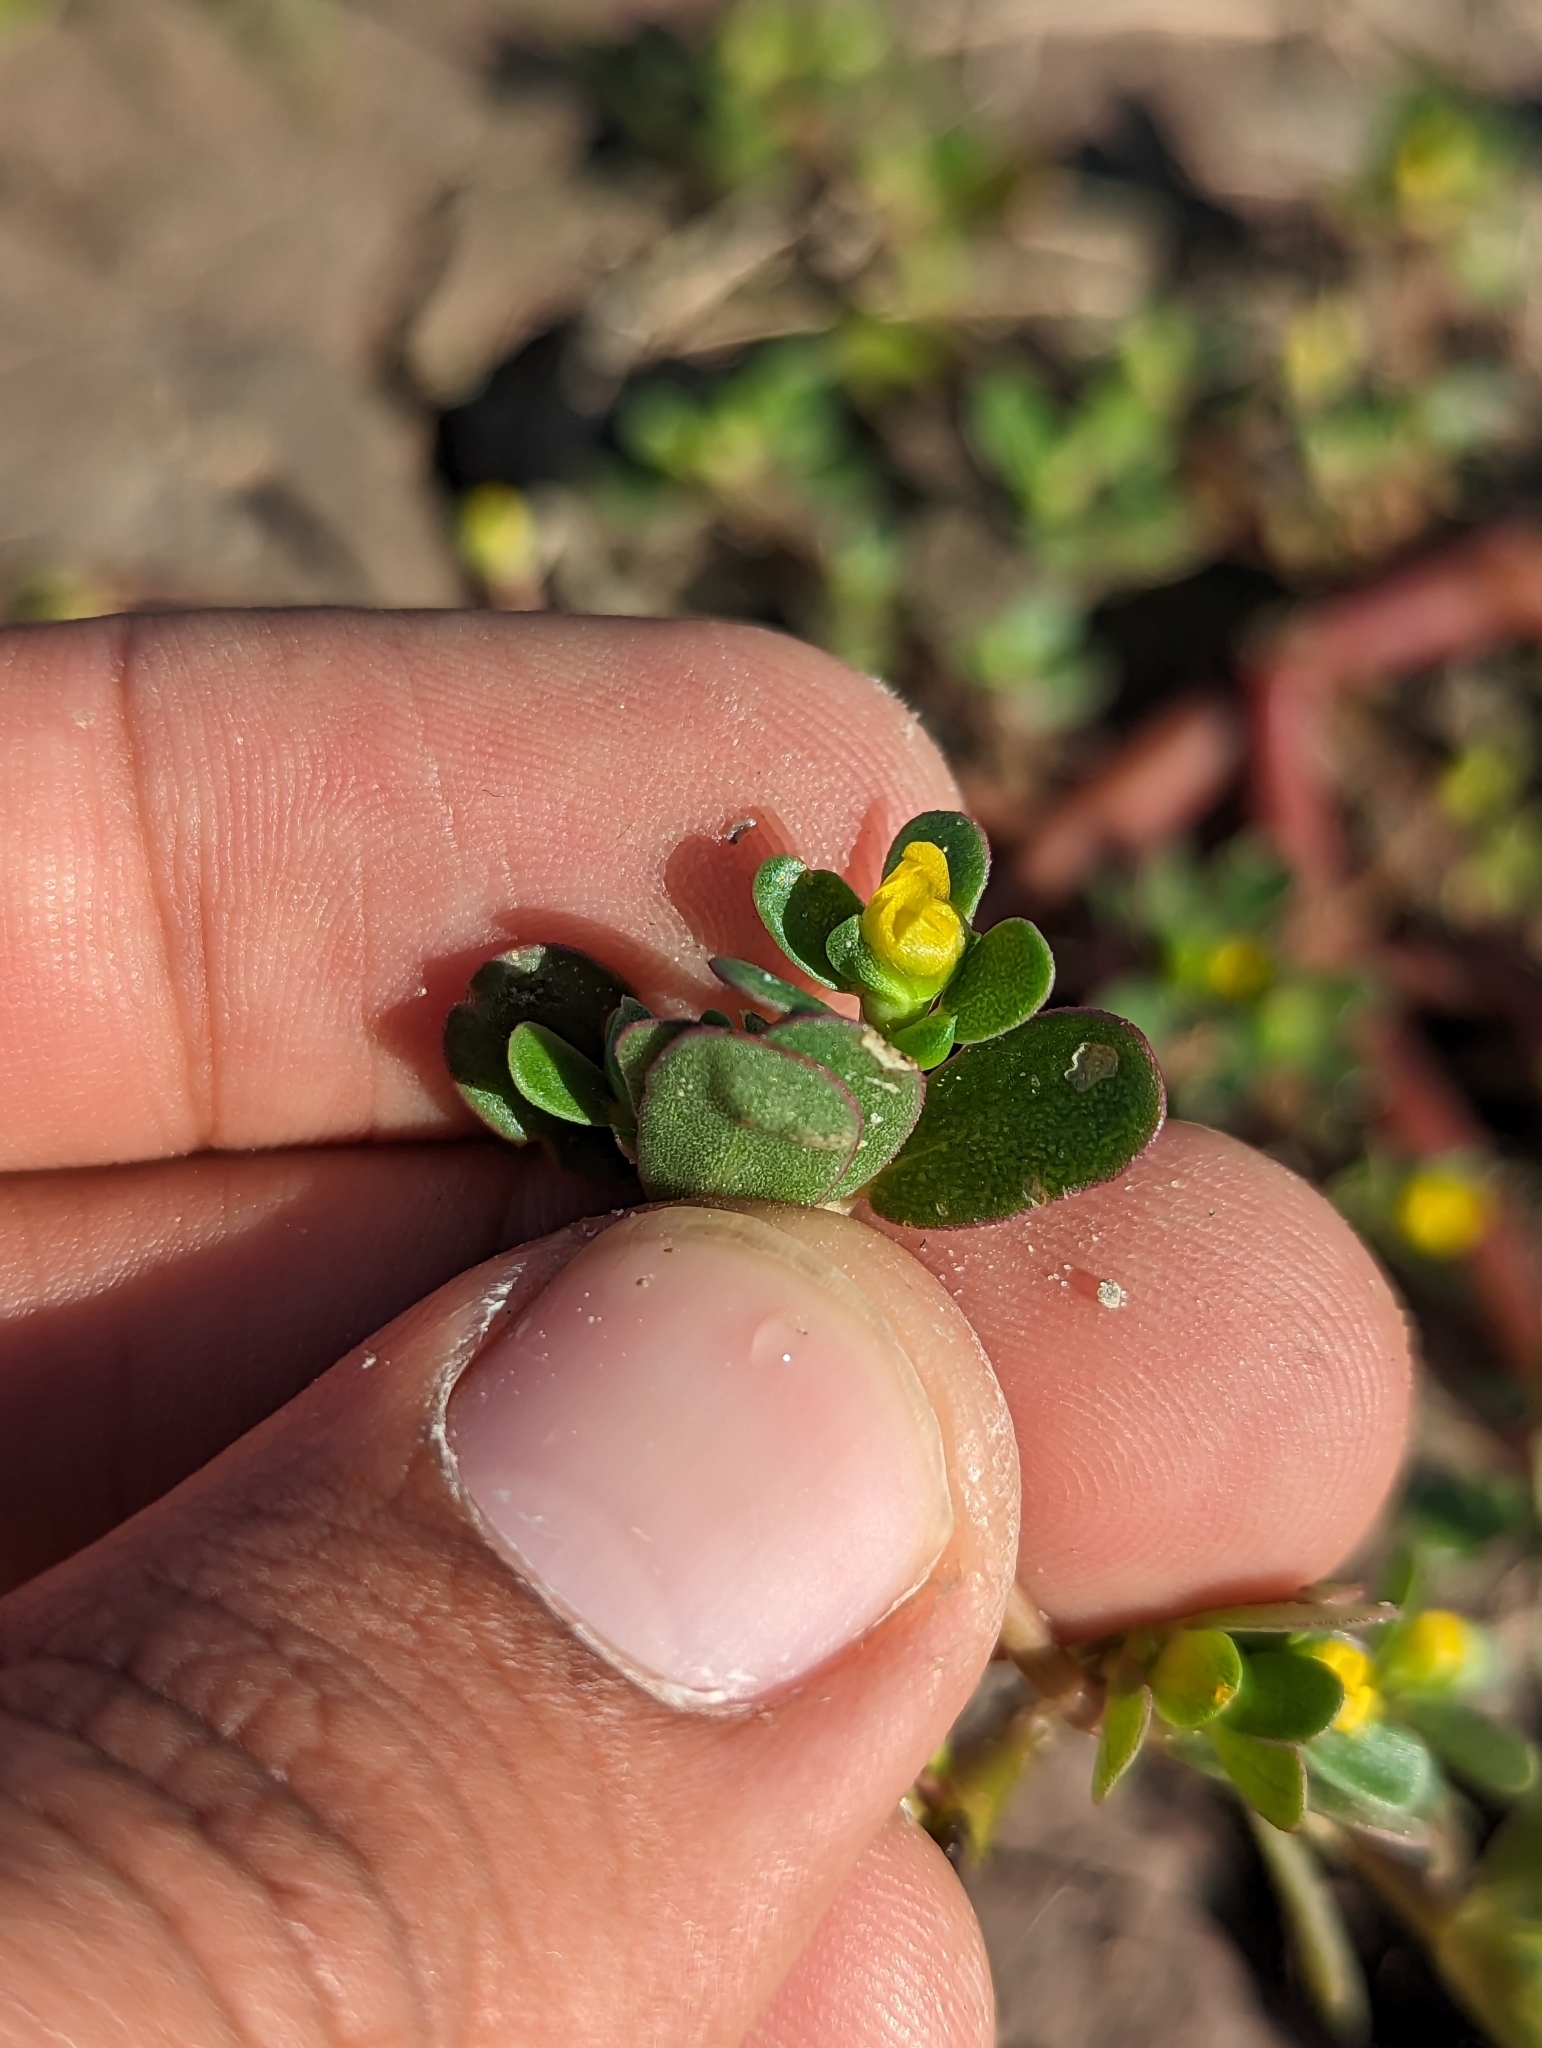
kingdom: Plantae
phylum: Tracheophyta
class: Magnoliopsida
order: Caryophyllales
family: Portulacaceae
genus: Portulaca
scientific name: Portulaca oleracea
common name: Common purslane
